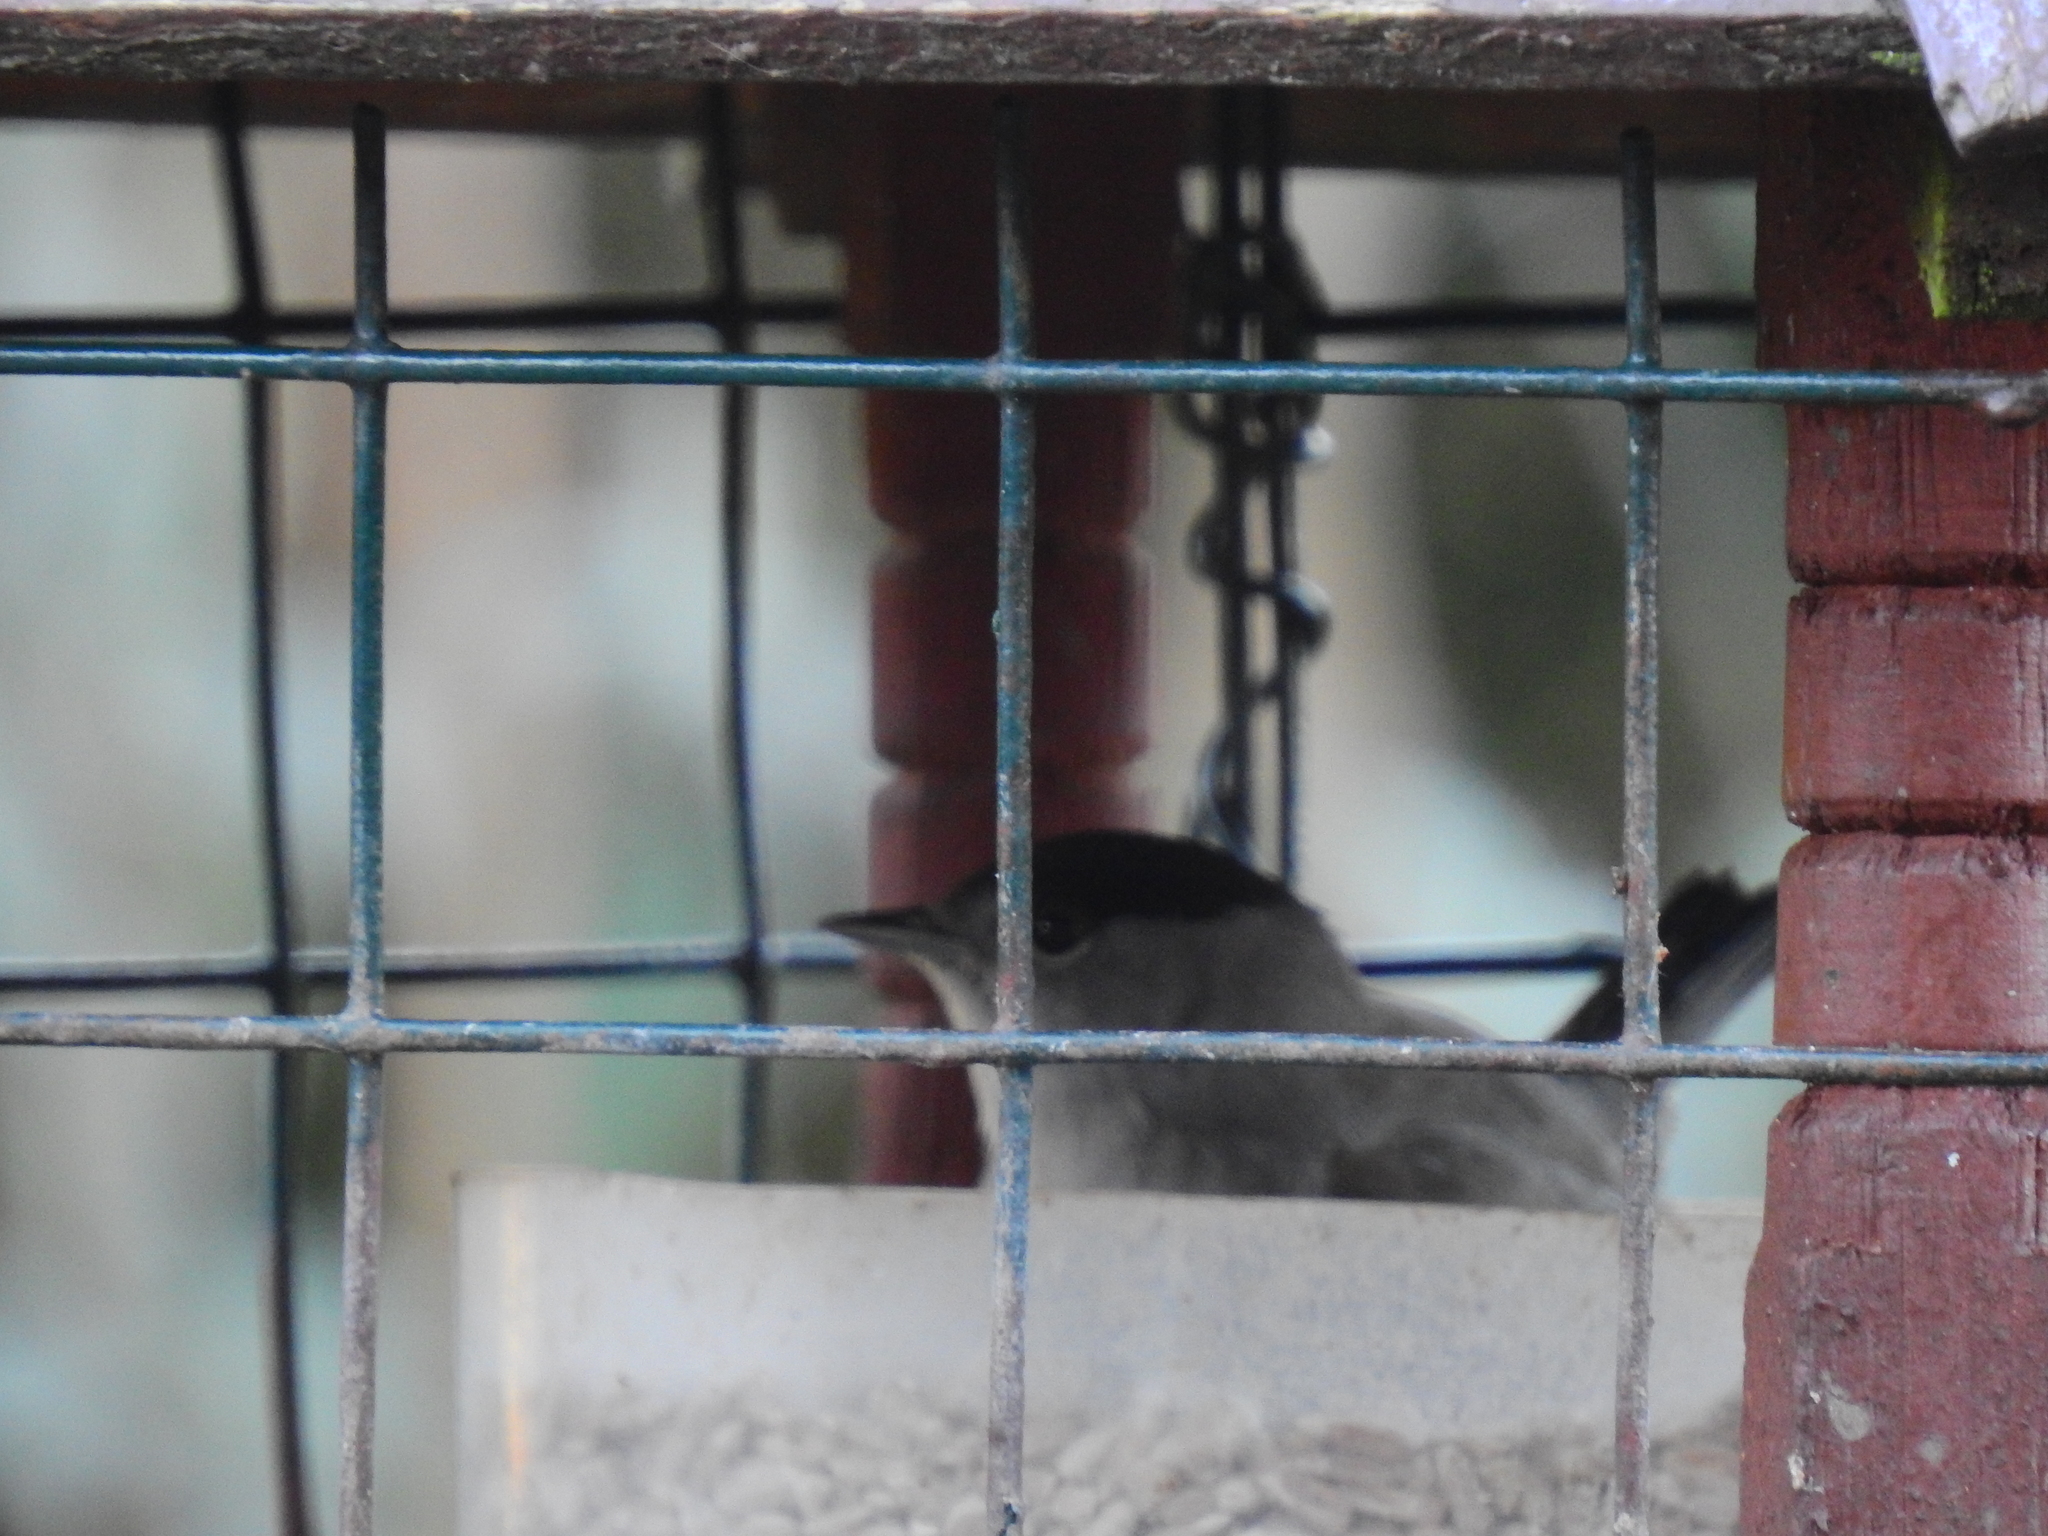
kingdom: Animalia
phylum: Chordata
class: Aves
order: Passeriformes
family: Sylviidae
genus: Sylvia
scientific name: Sylvia atricapilla
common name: Eurasian blackcap
